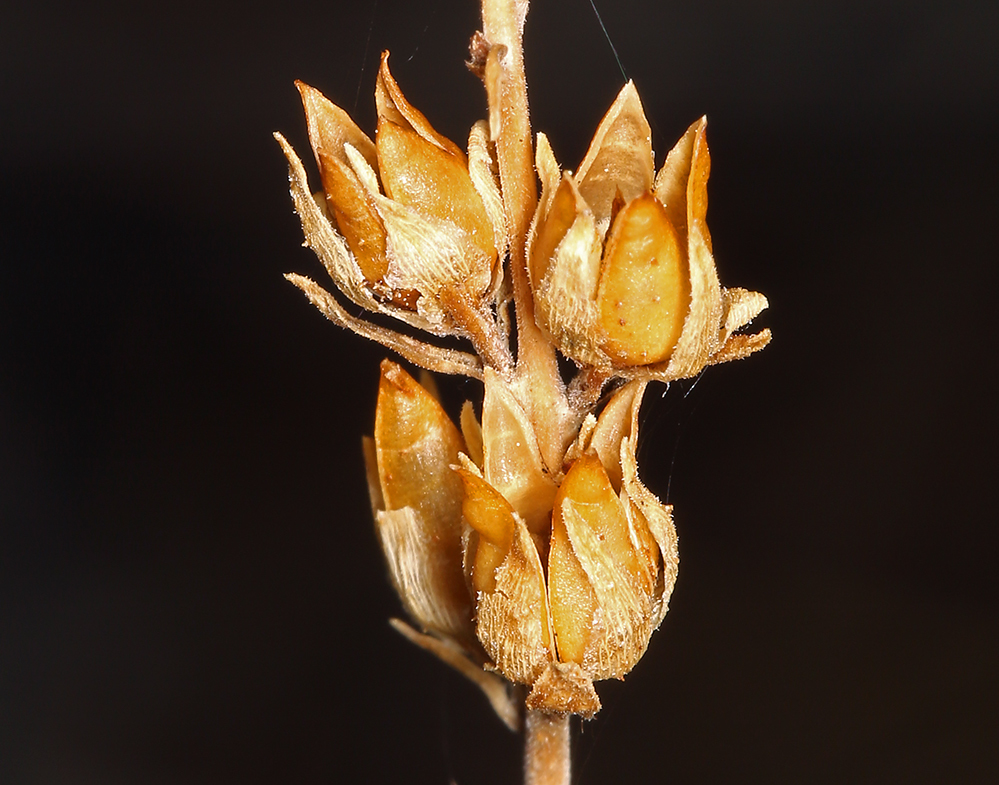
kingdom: Plantae
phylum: Tracheophyta
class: Magnoliopsida
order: Lamiales
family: Plantaginaceae
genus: Keckiella
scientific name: Keckiella rothrockii
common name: Rothrock's keckiella
